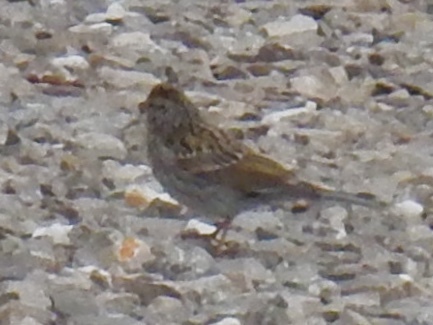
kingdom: Animalia
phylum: Chordata
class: Aves
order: Passeriformes
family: Passerellidae
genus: Spizella
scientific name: Spizella passerina
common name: Chipping sparrow
